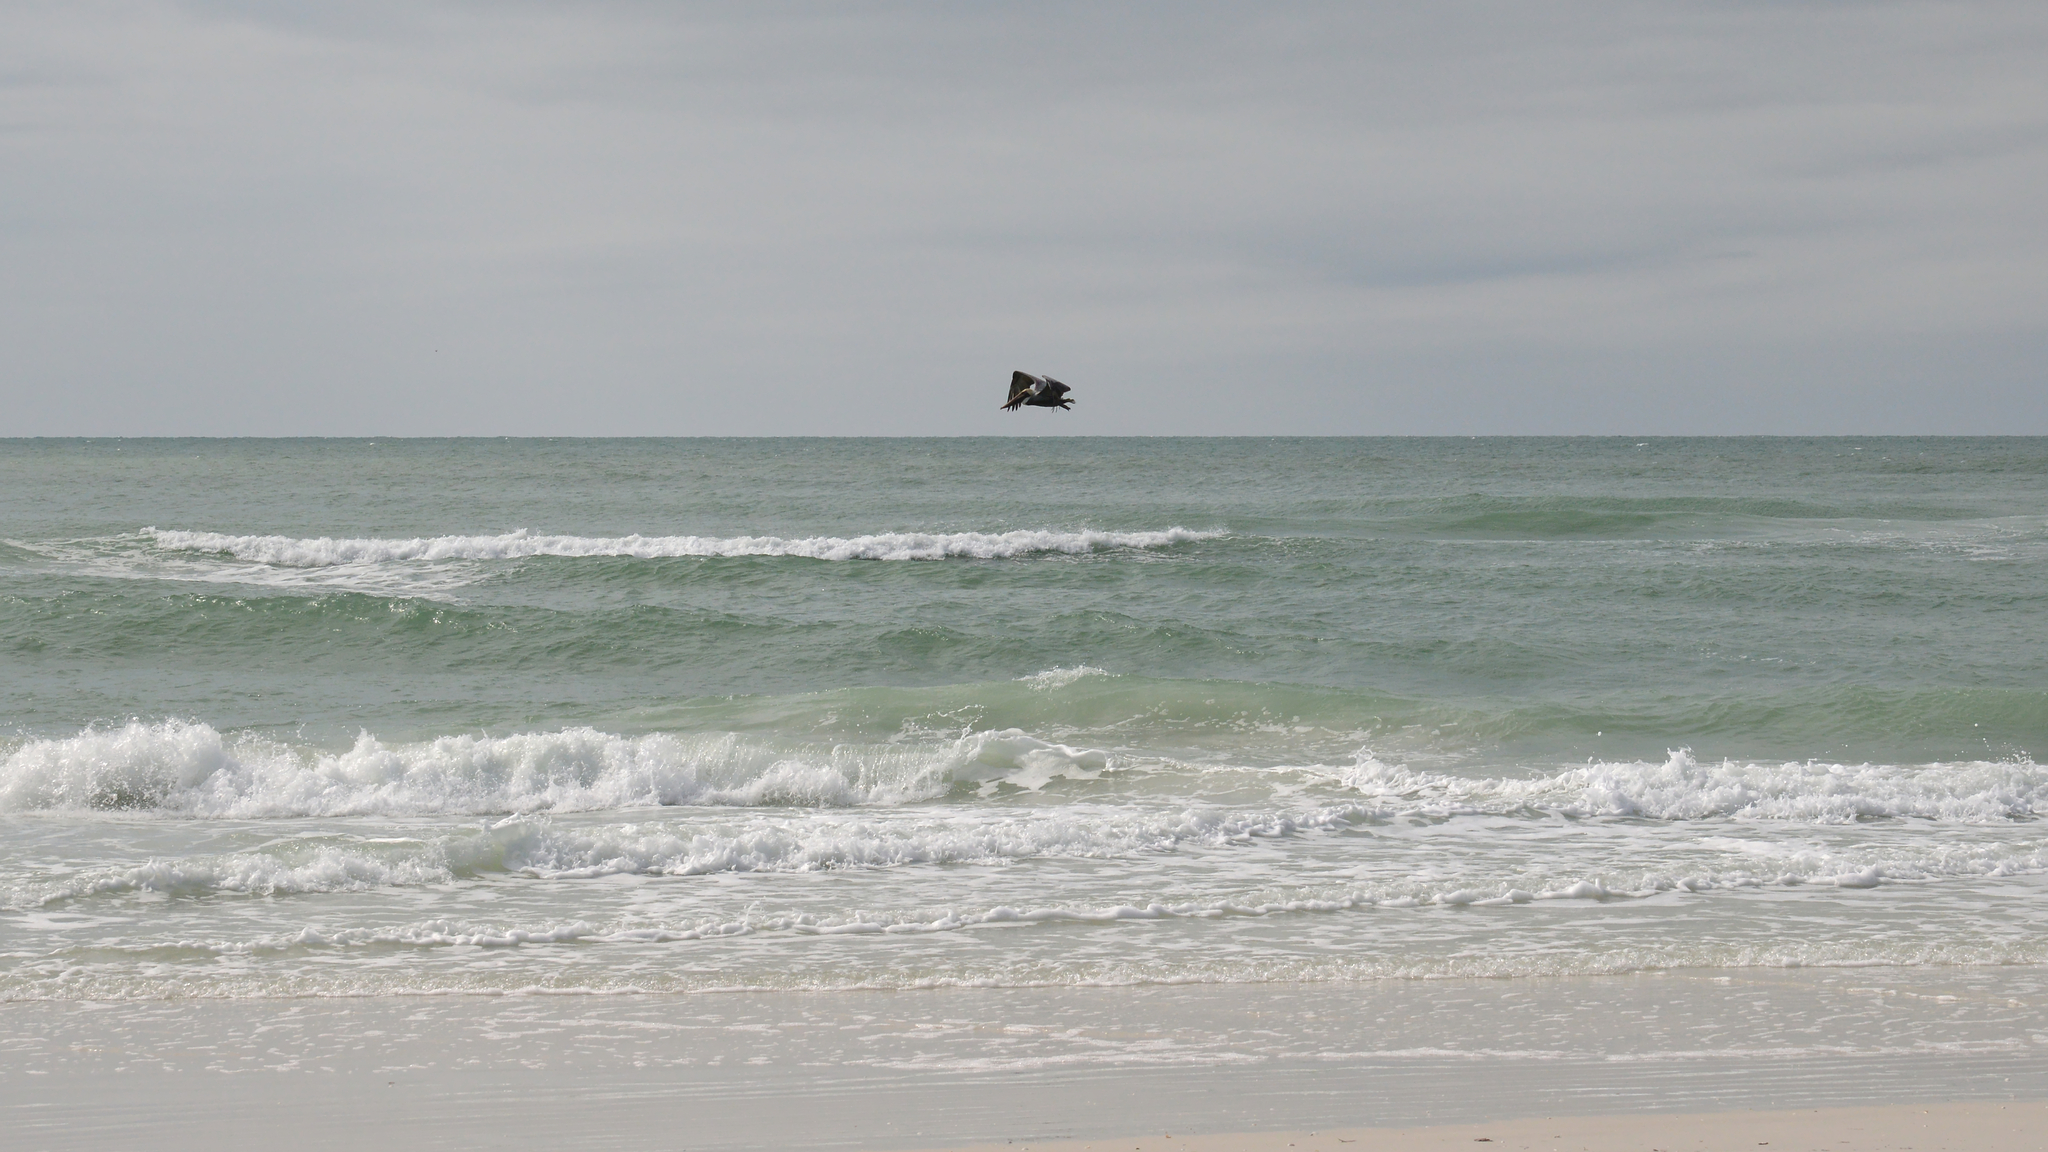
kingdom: Animalia
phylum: Chordata
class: Aves
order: Pelecaniformes
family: Pelecanidae
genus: Pelecanus
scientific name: Pelecanus occidentalis
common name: Brown pelican
